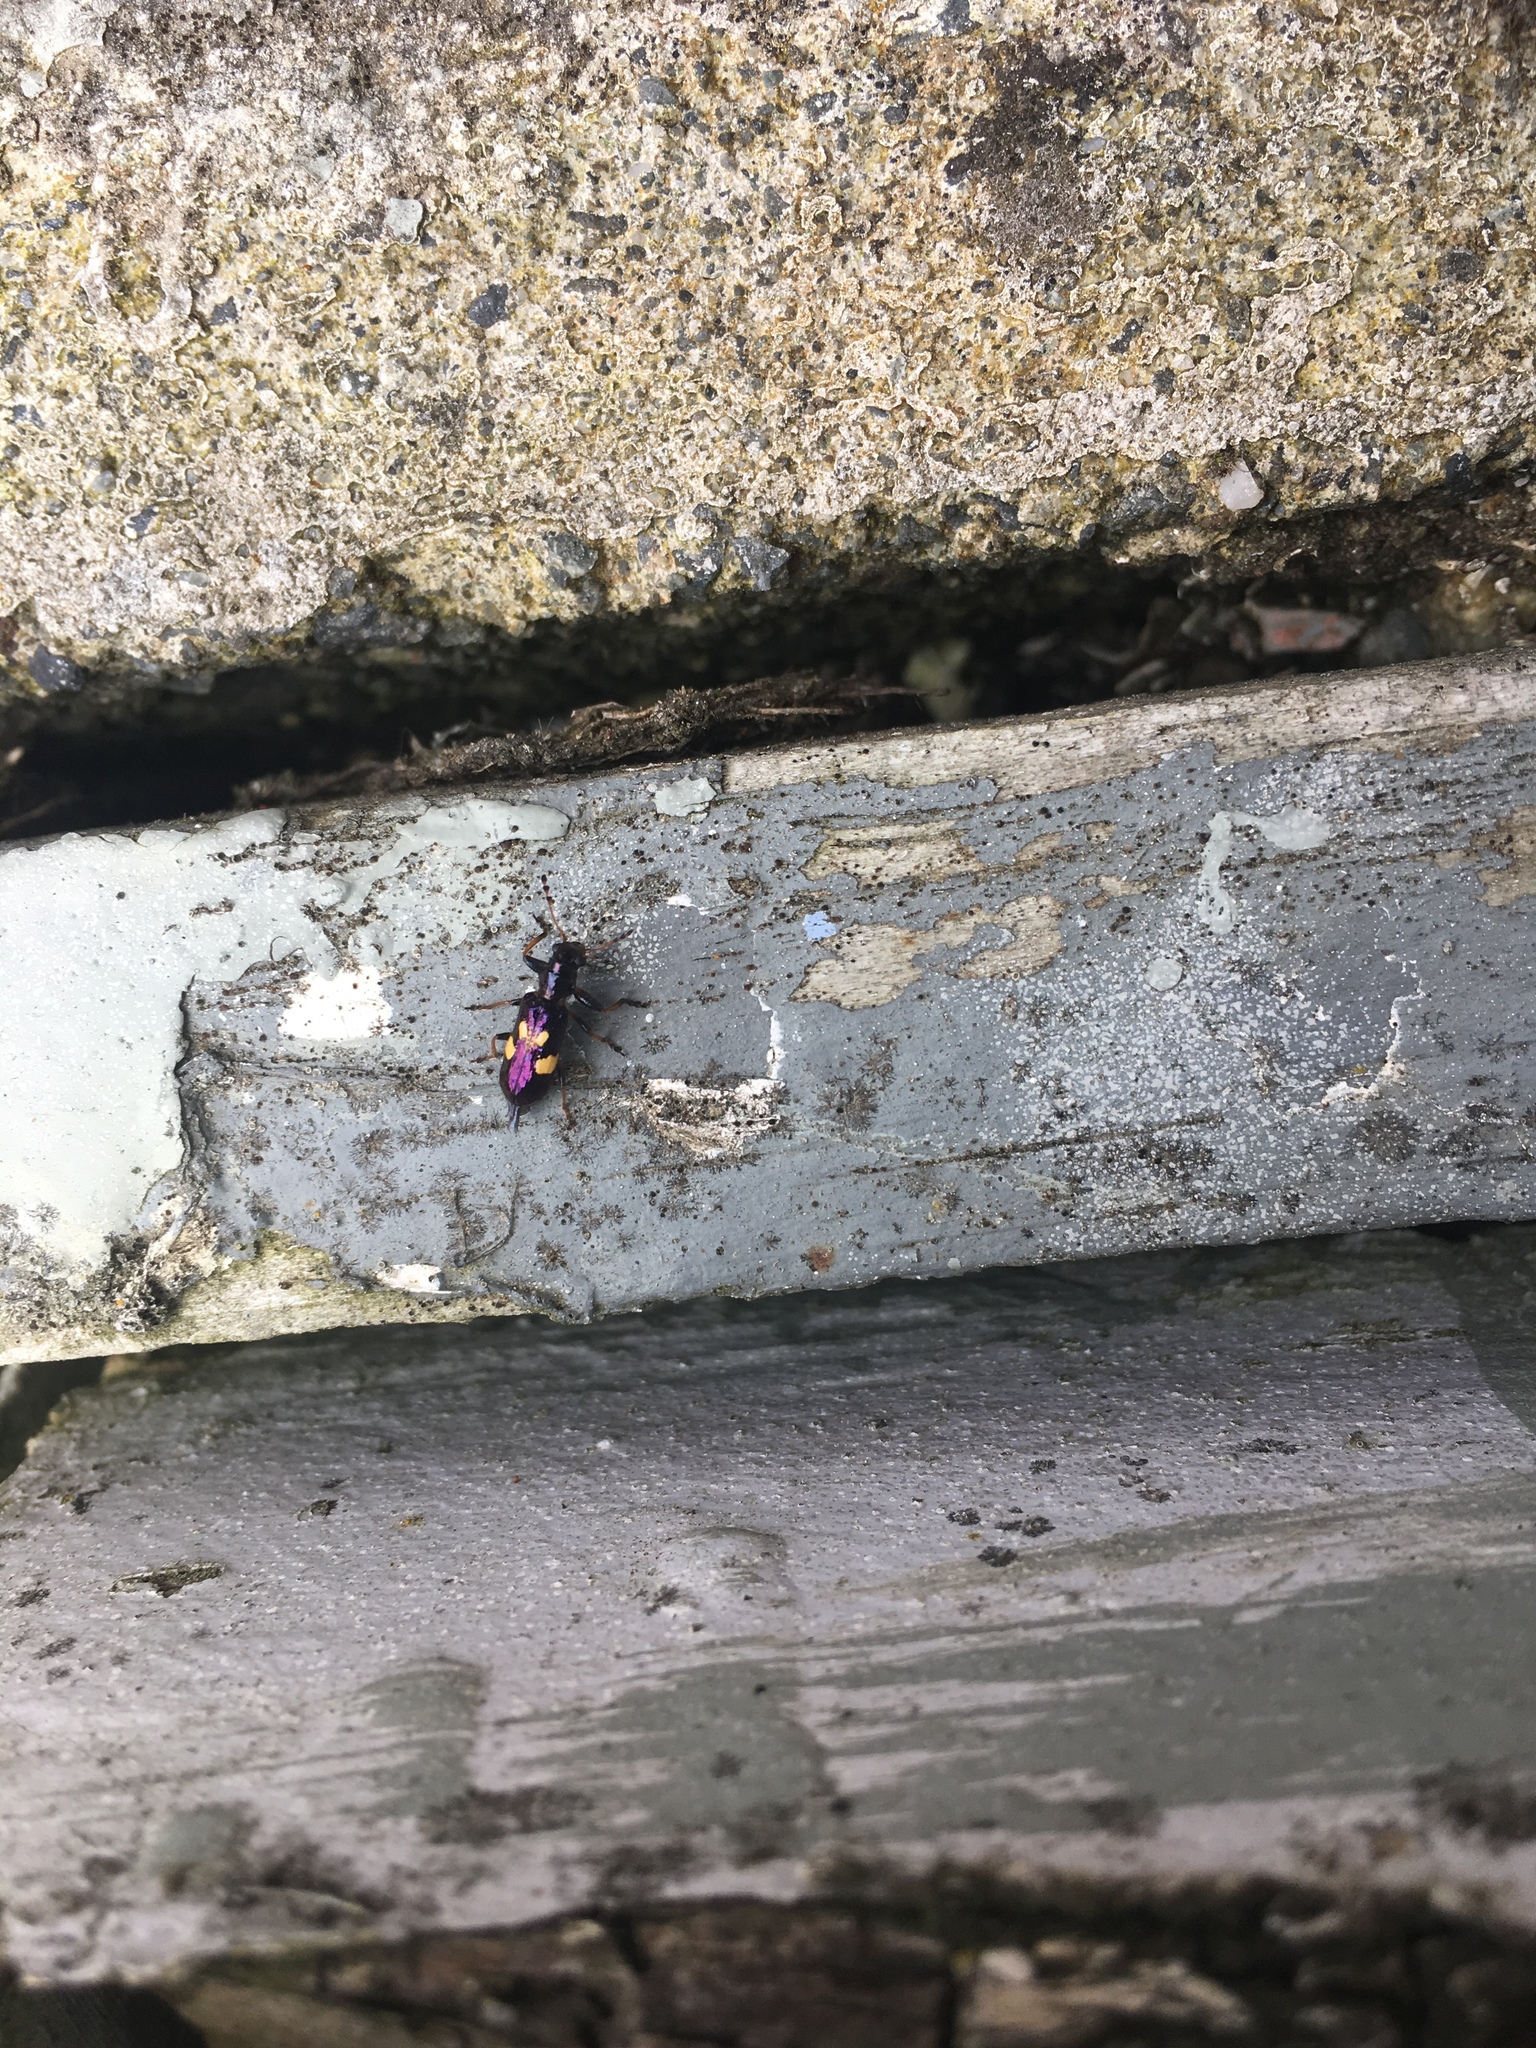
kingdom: Animalia
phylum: Arthropoda
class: Insecta
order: Coleoptera
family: Cleridae
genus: Phymatophaea
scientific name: Phymatophaea
